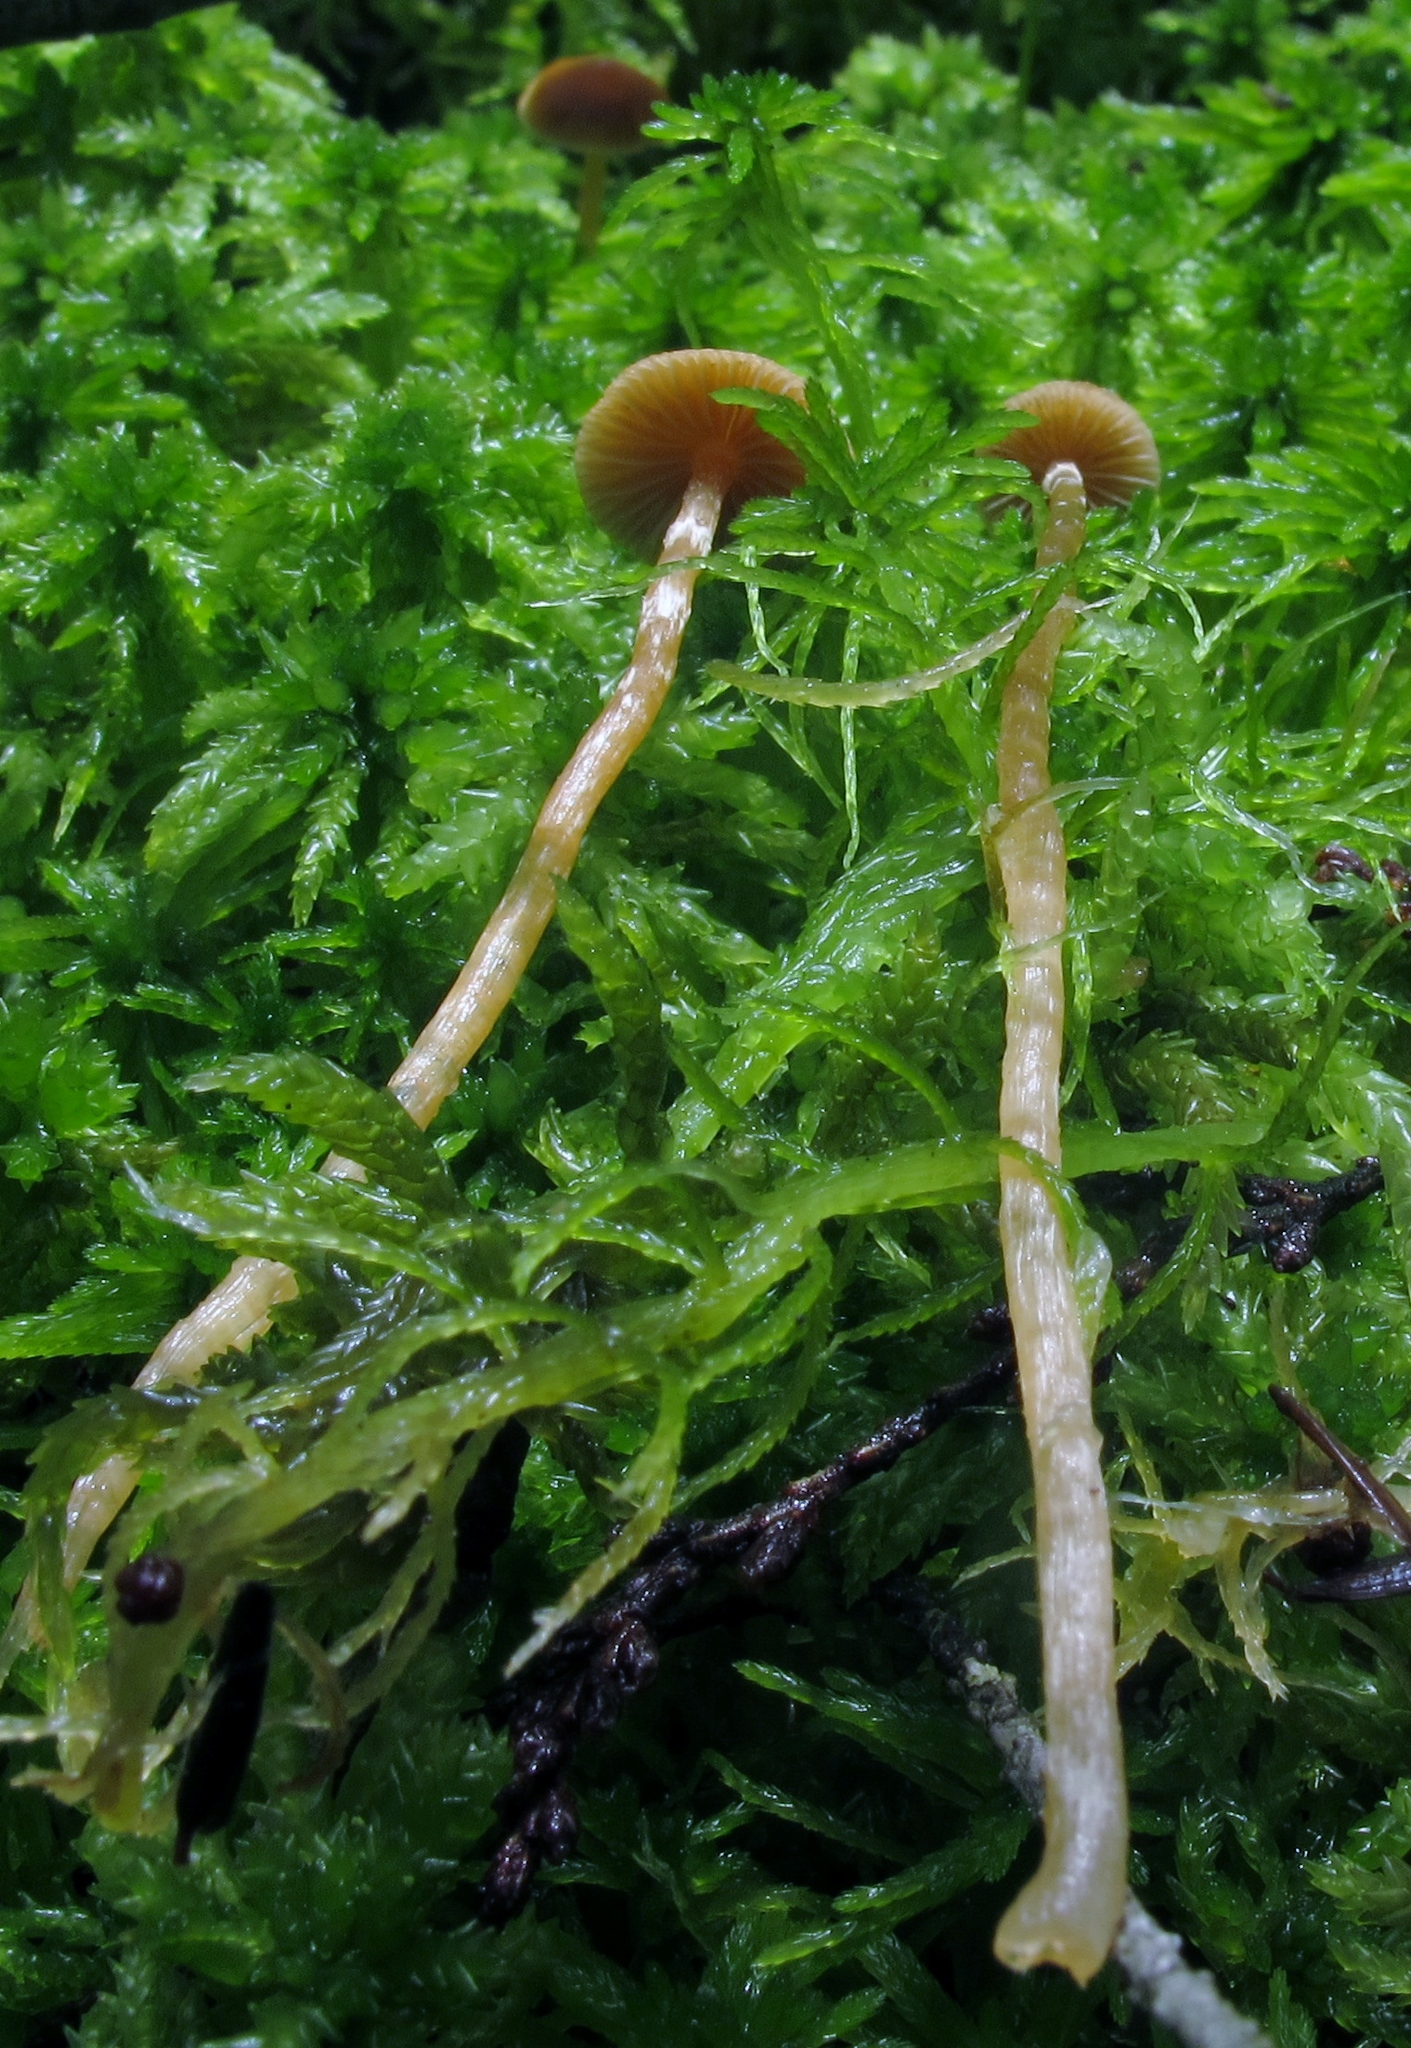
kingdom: Fungi
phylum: Basidiomycota
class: Agaricomycetes
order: Agaricales
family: Hymenogastraceae
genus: Galerina
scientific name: Galerina paludosa
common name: Bog bell
